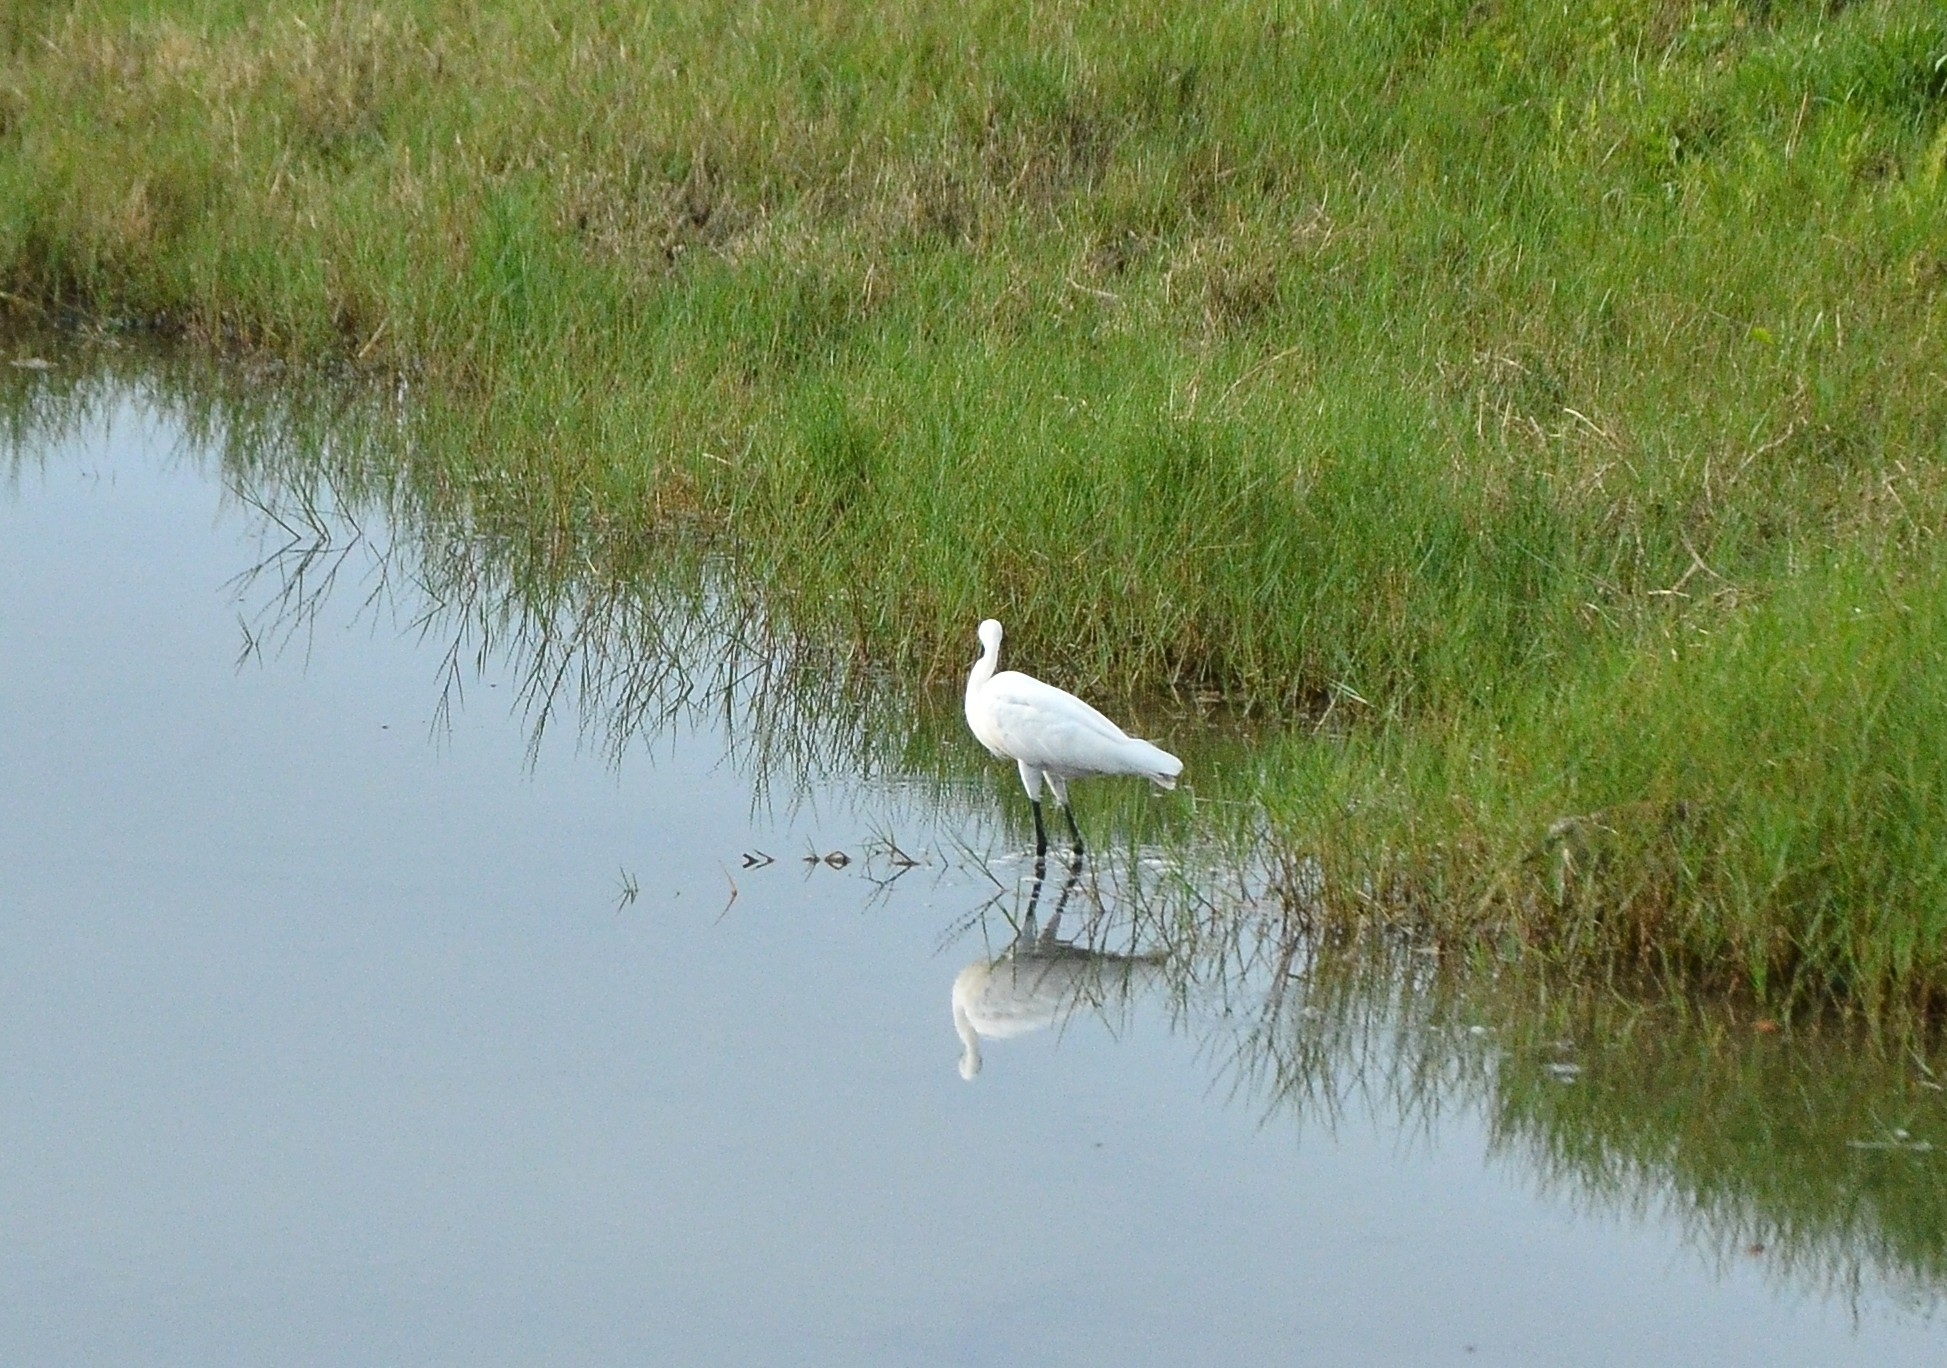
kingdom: Animalia
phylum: Chordata
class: Aves
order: Pelecaniformes
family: Ardeidae
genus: Egretta
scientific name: Egretta garzetta
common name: Little egret
